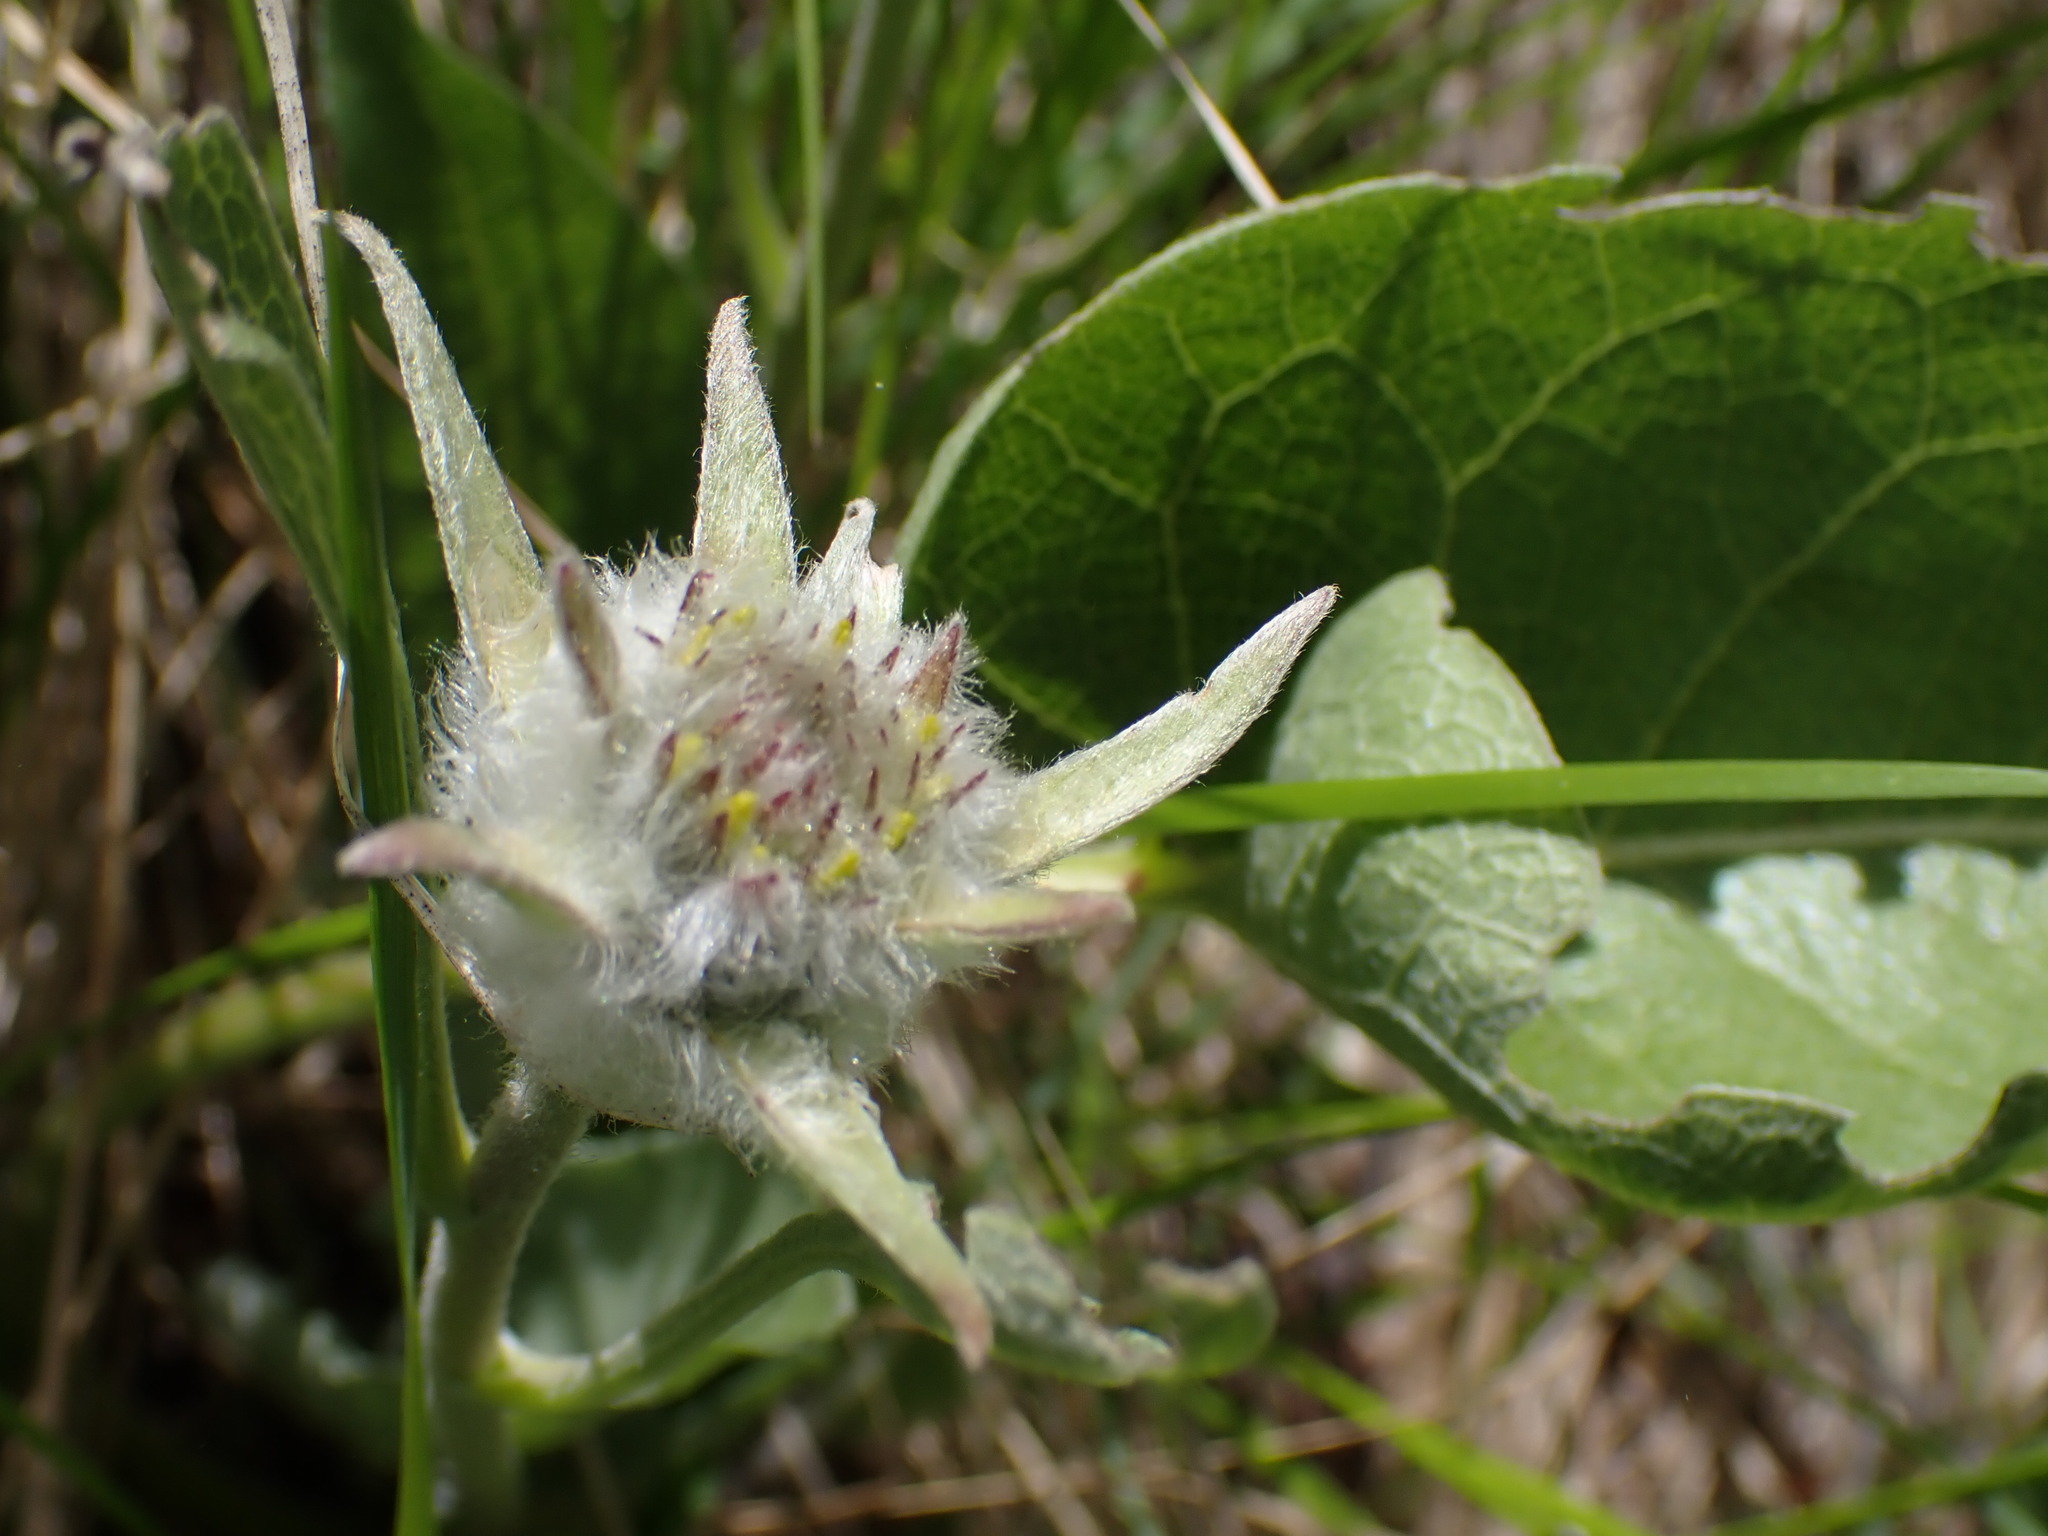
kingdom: Plantae
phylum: Tracheophyta
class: Magnoliopsida
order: Asterales
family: Asteraceae
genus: Wyethia
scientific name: Wyethia sagittata
